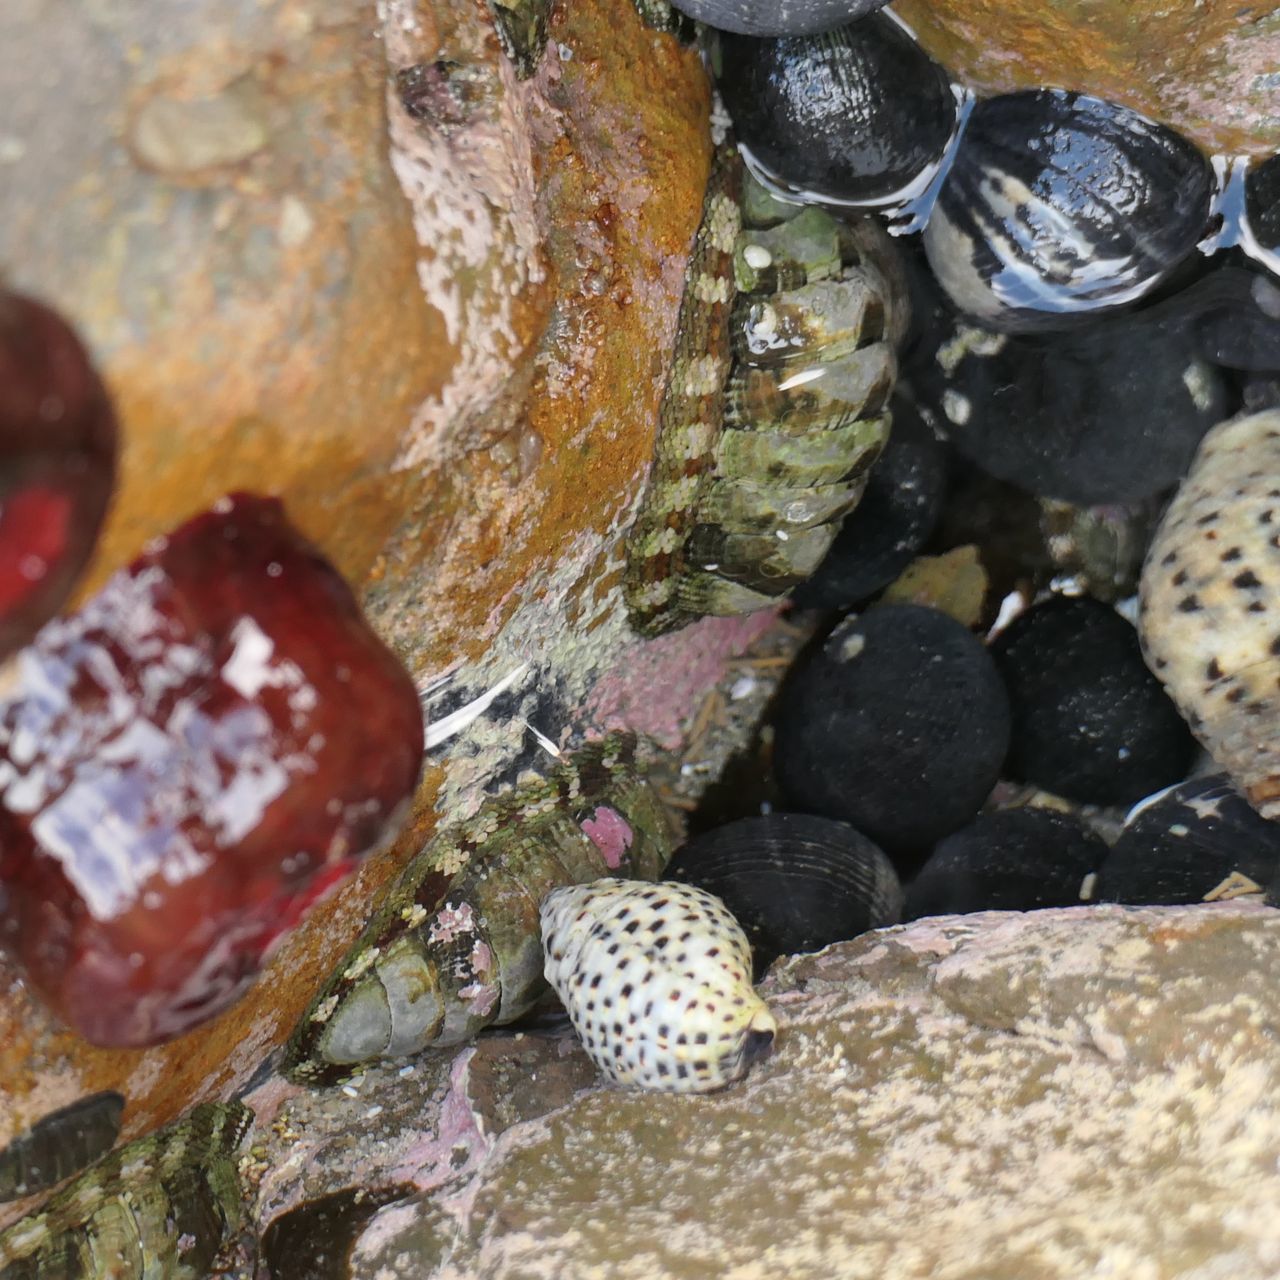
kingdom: Animalia
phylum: Mollusca
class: Polyplacophora
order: Chitonida
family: Chitonidae
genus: Sypharochiton
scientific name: Sypharochiton pelliserpentis
